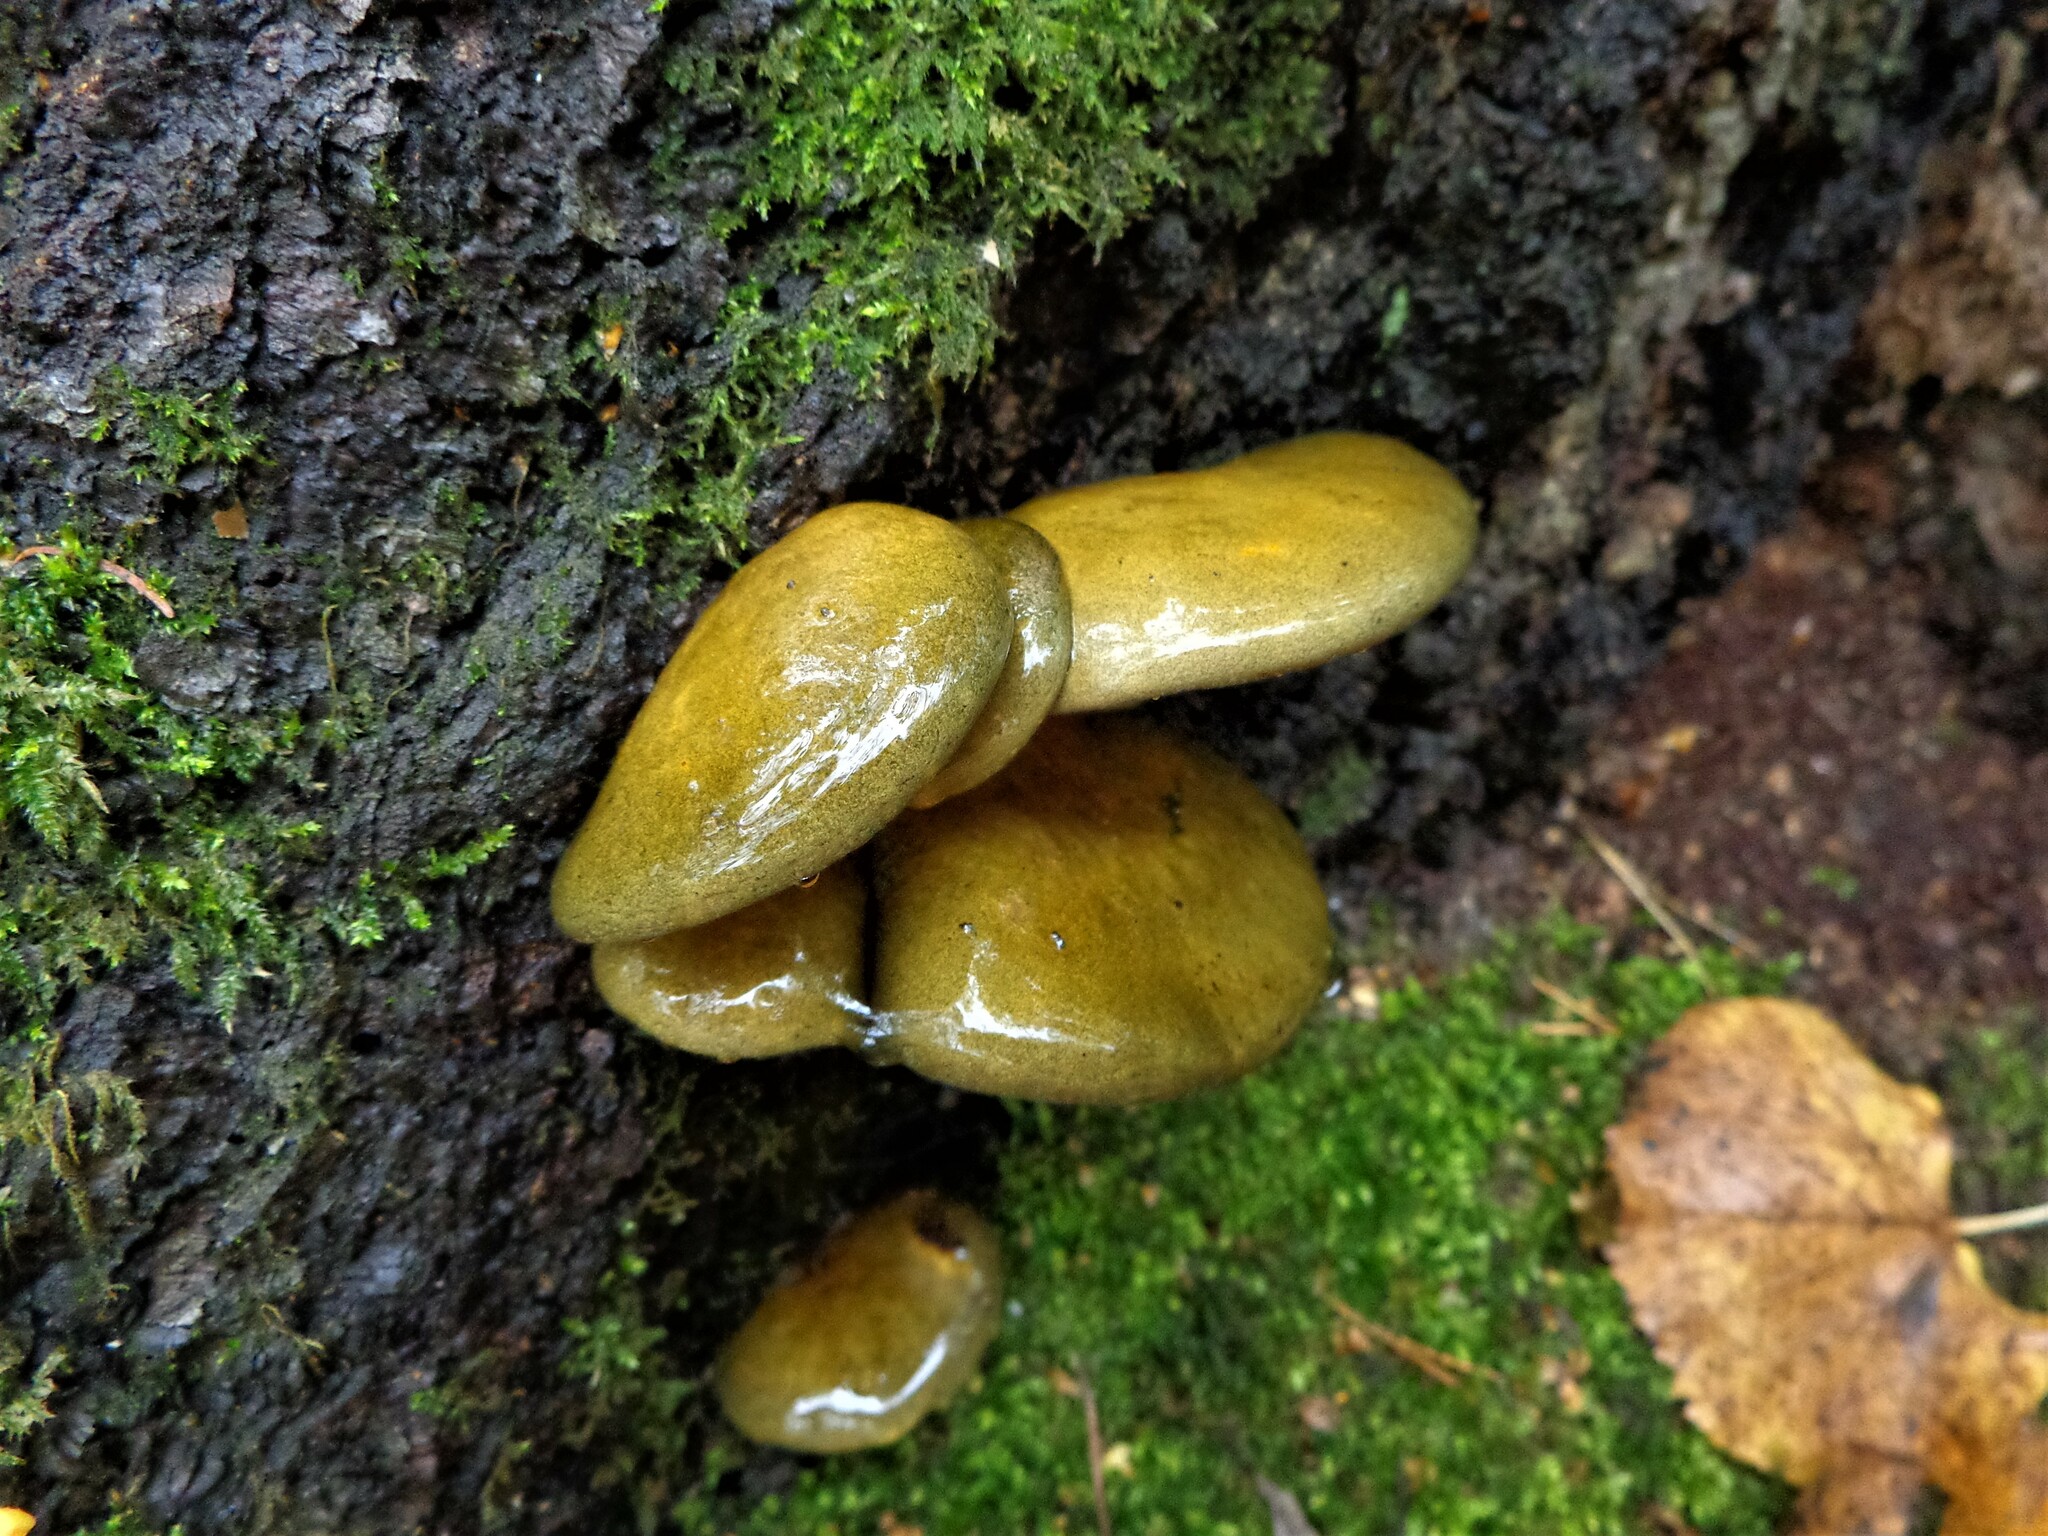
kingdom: Fungi
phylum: Basidiomycota
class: Agaricomycetes
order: Agaricales
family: Sarcomyxaceae
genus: Sarcomyxa
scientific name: Sarcomyxa serotina
